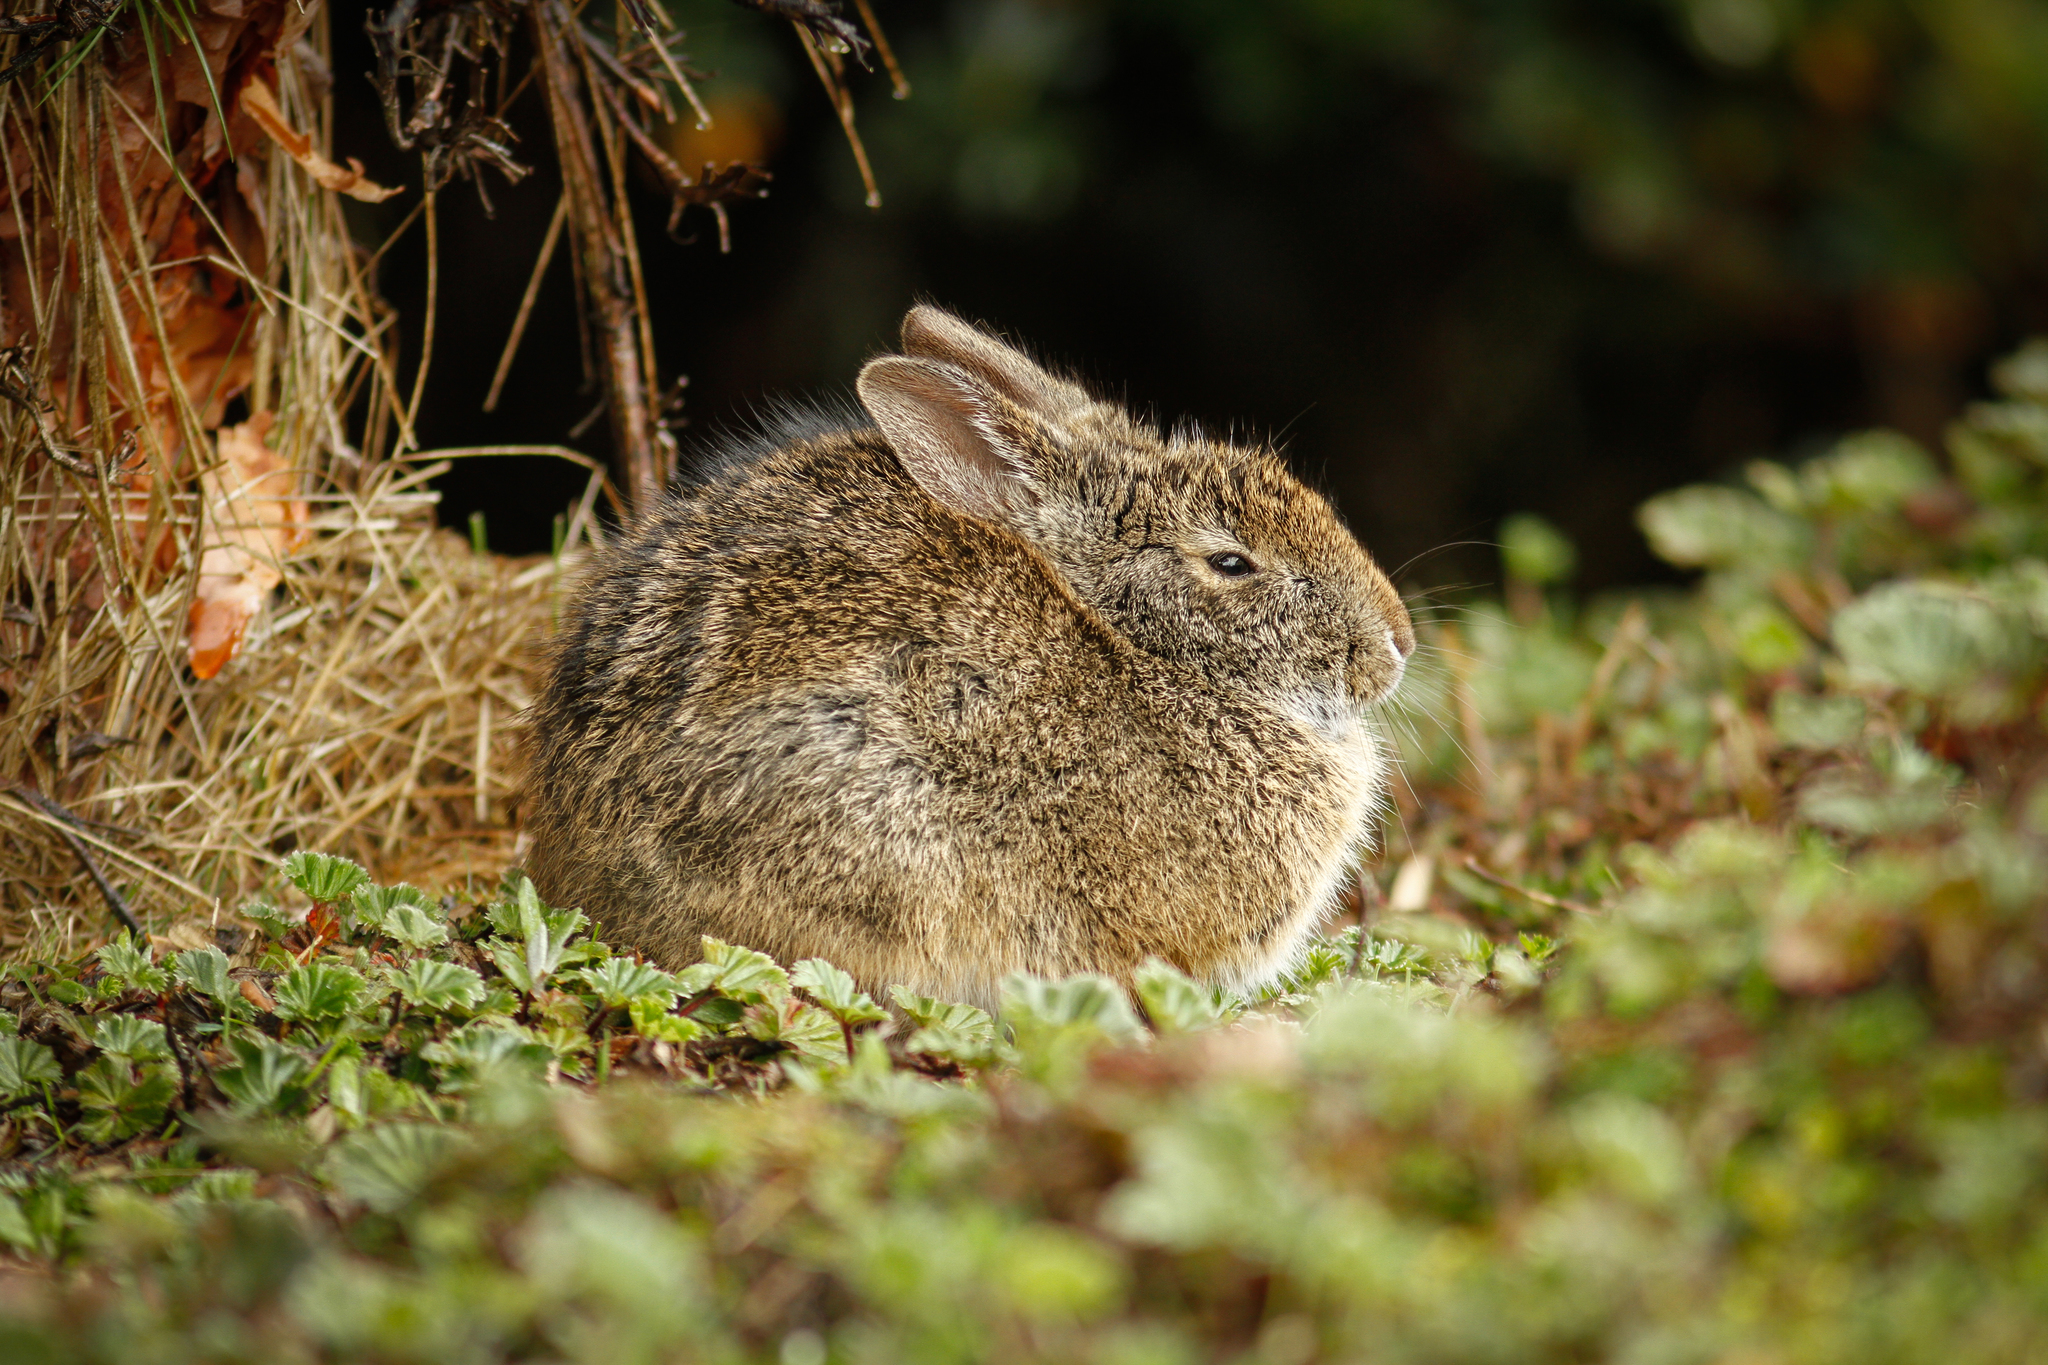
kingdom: Animalia
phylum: Chordata
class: Mammalia
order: Lagomorpha
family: Leporidae
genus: Sylvilagus
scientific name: Sylvilagus andinus
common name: Andean cottontail
